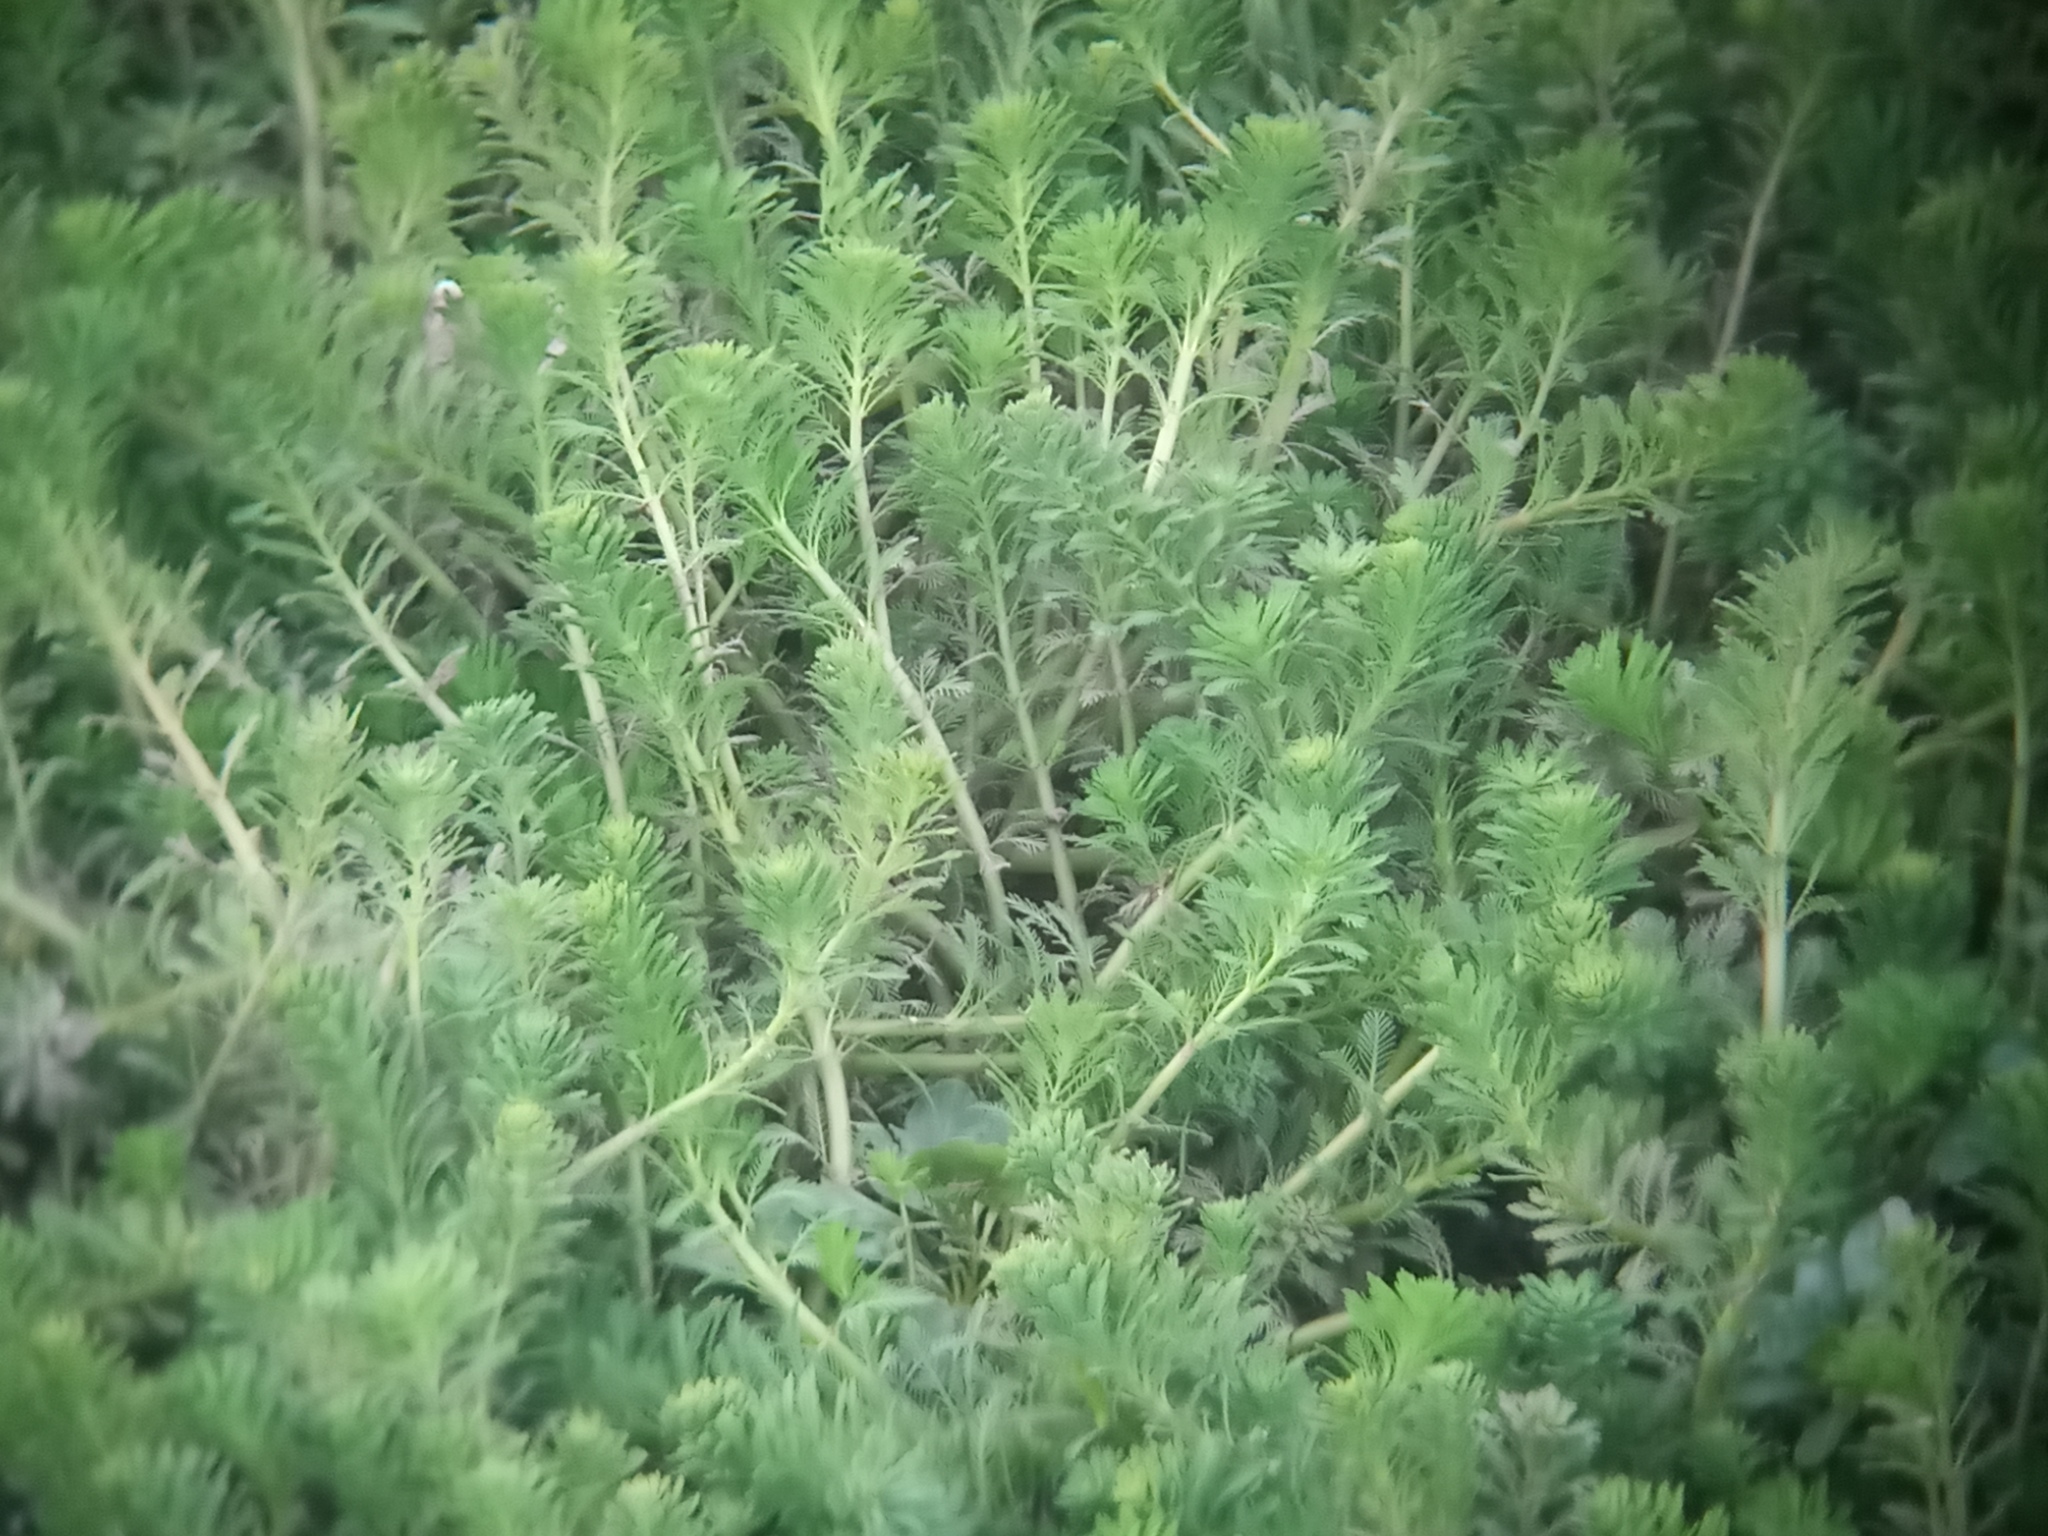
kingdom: Plantae
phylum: Tracheophyta
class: Magnoliopsida
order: Saxifragales
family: Haloragaceae
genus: Myriophyllum
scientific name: Myriophyllum aquaticum
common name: Parrot's feather
